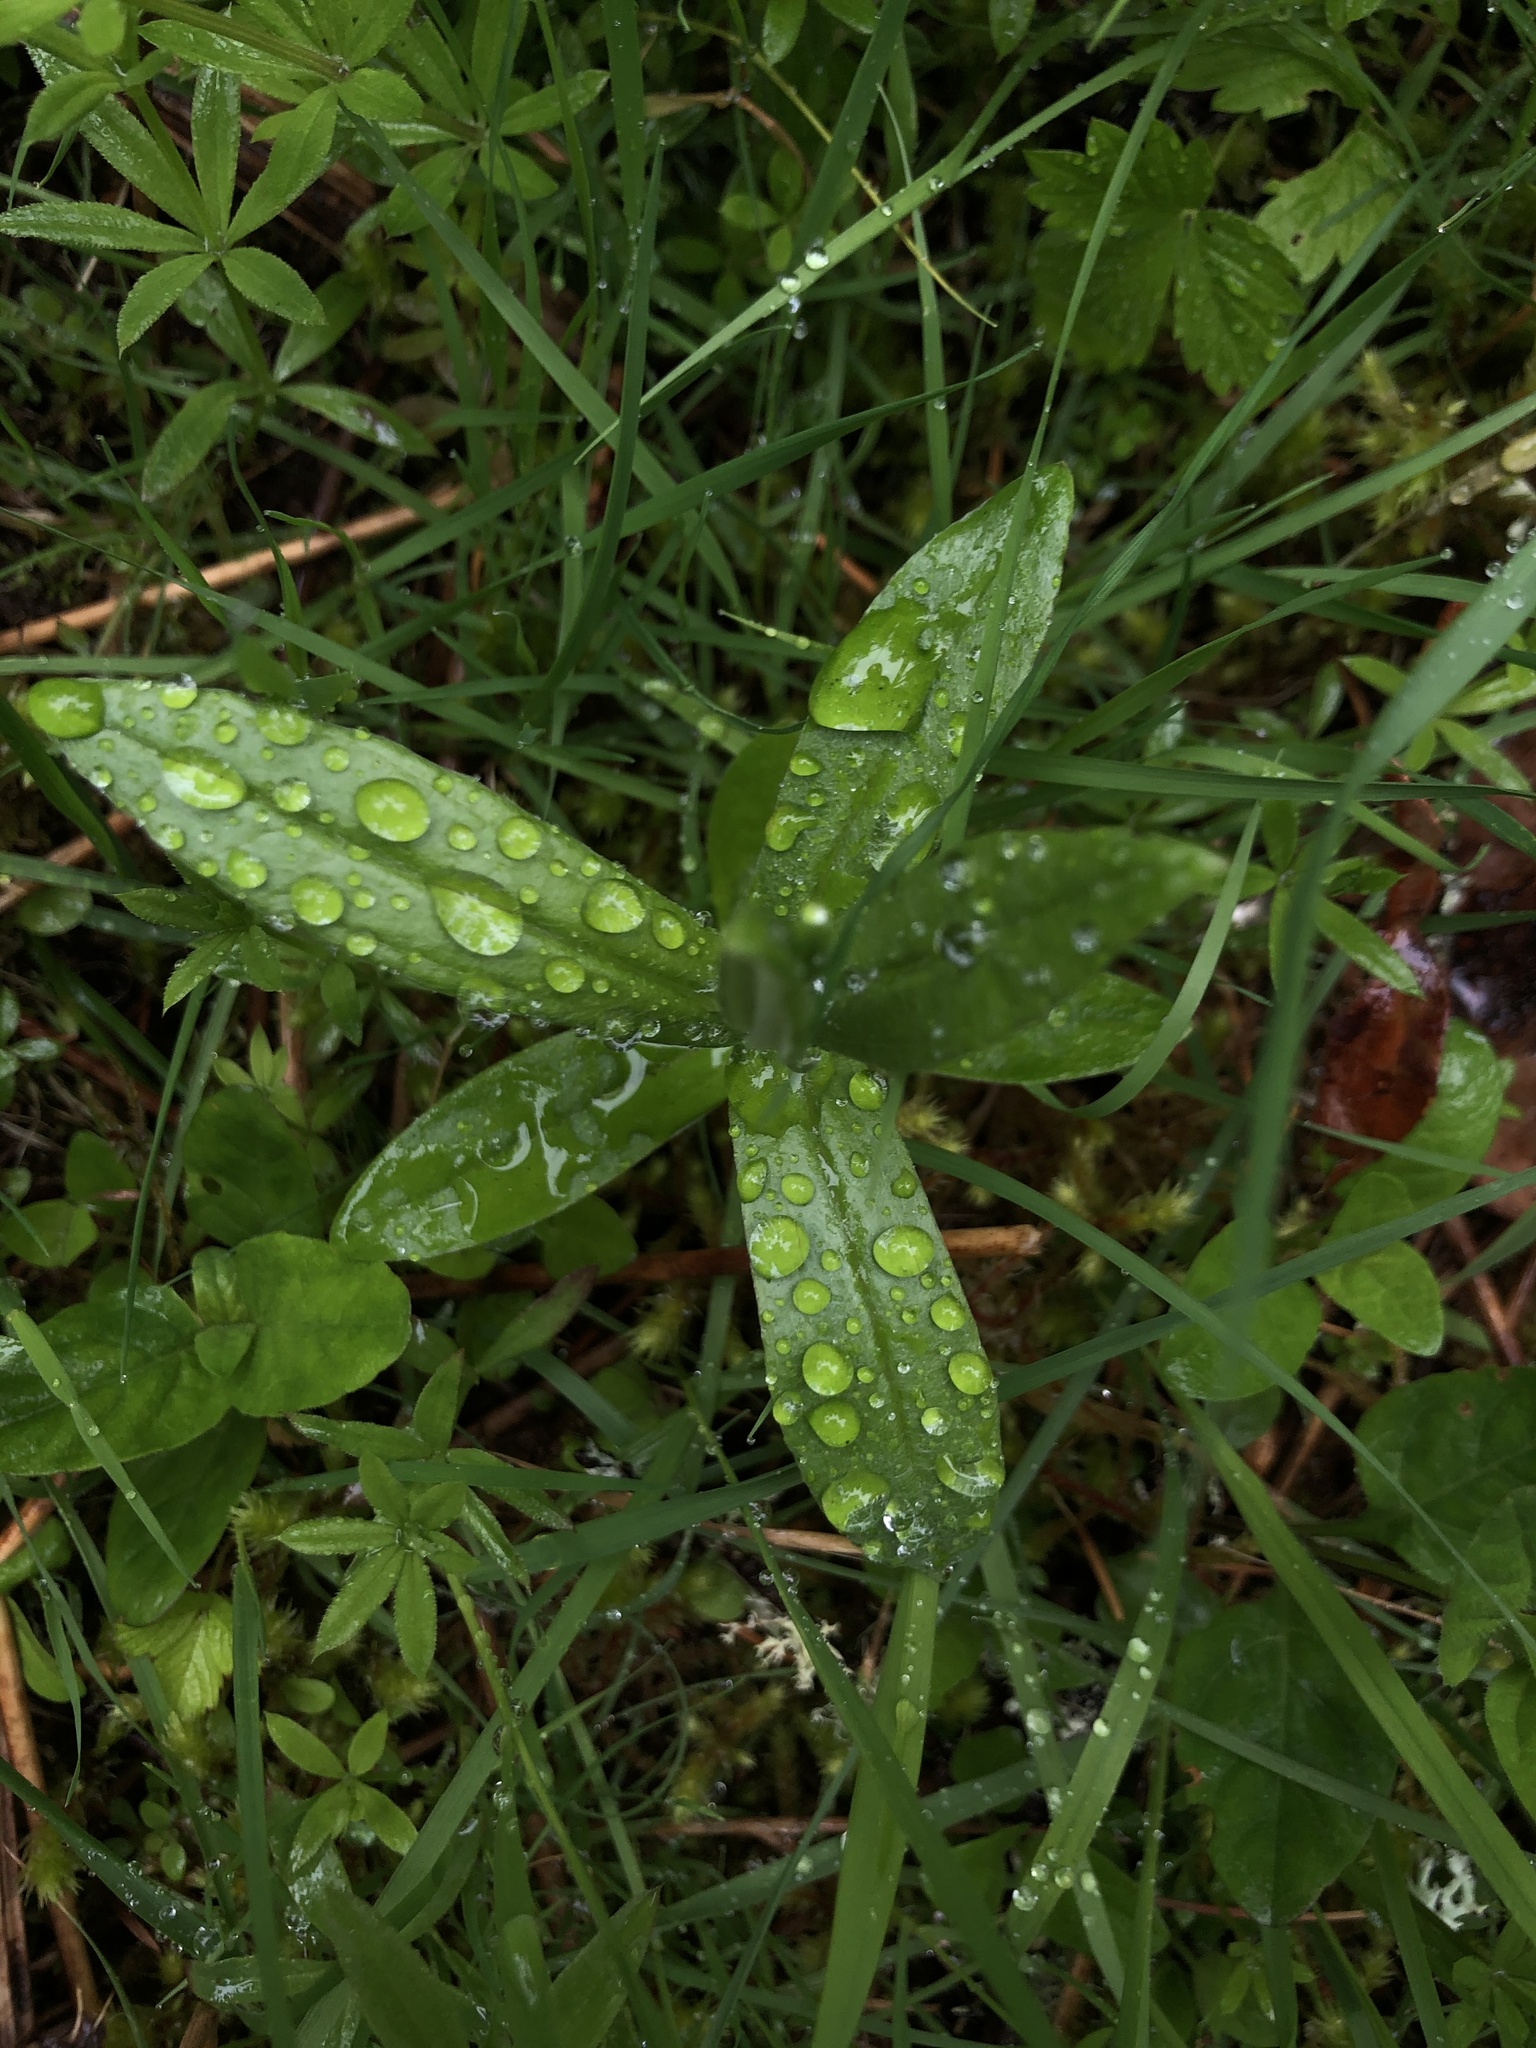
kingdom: Plantae
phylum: Tracheophyta
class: Magnoliopsida
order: Asterales
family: Asteraceae
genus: Anaphalis
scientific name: Anaphalis margaritacea
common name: Pearly everlasting
